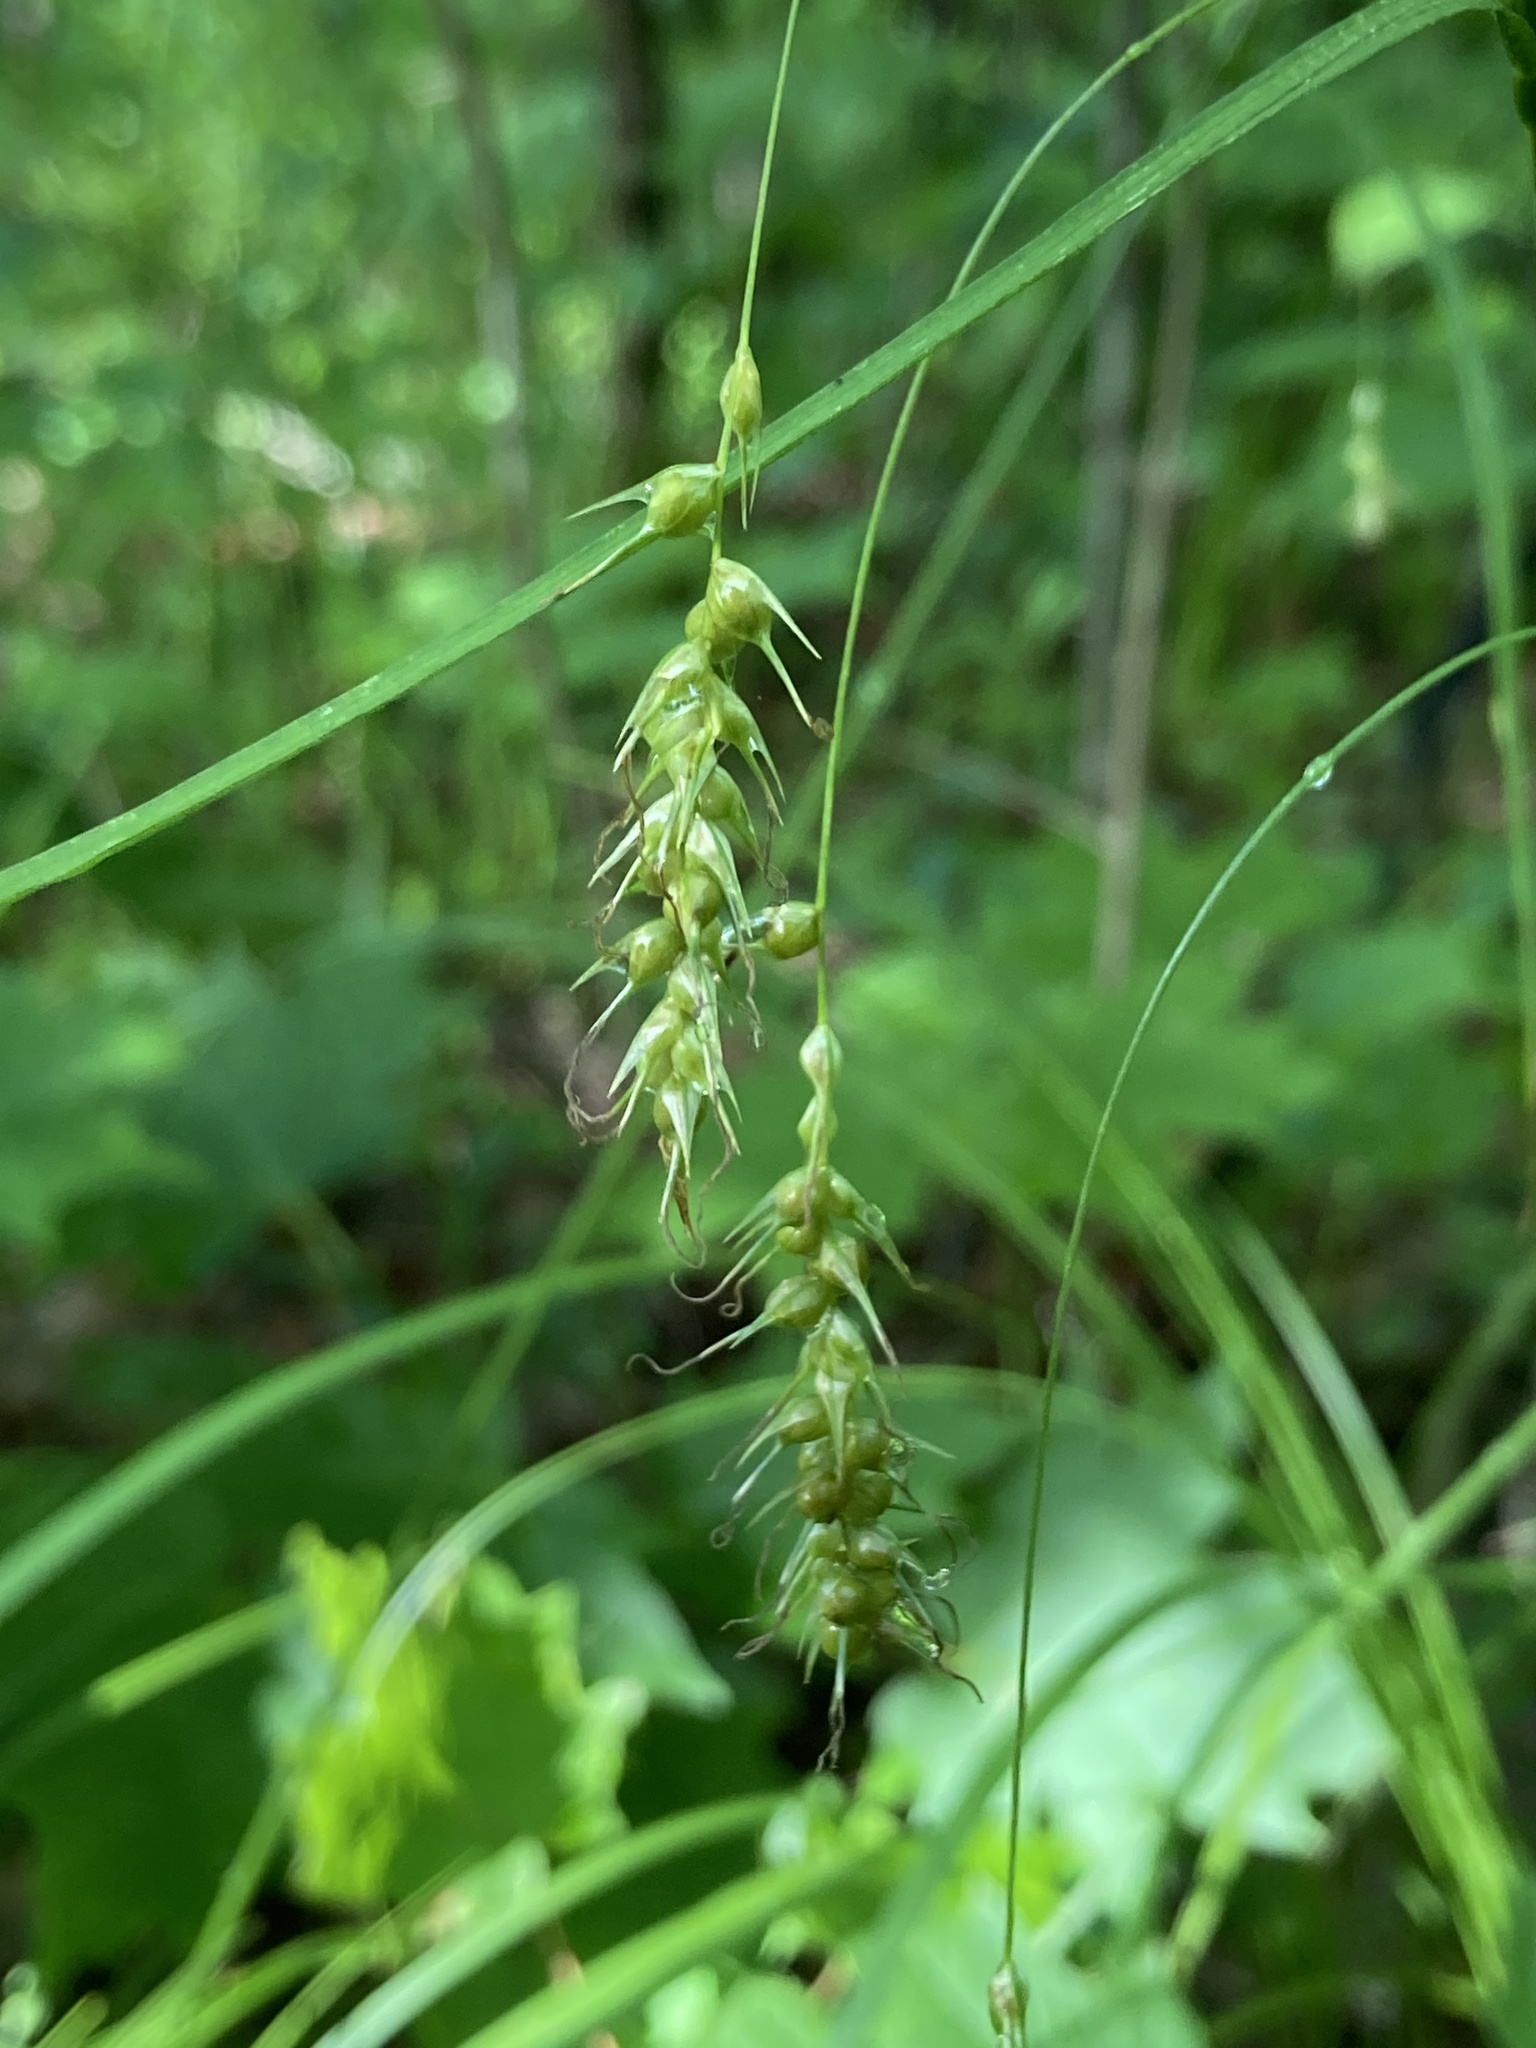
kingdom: Plantae
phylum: Tracheophyta
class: Liliopsida
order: Poales
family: Cyperaceae
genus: Carex
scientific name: Carex sprengelii
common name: Long-beaked sedge
